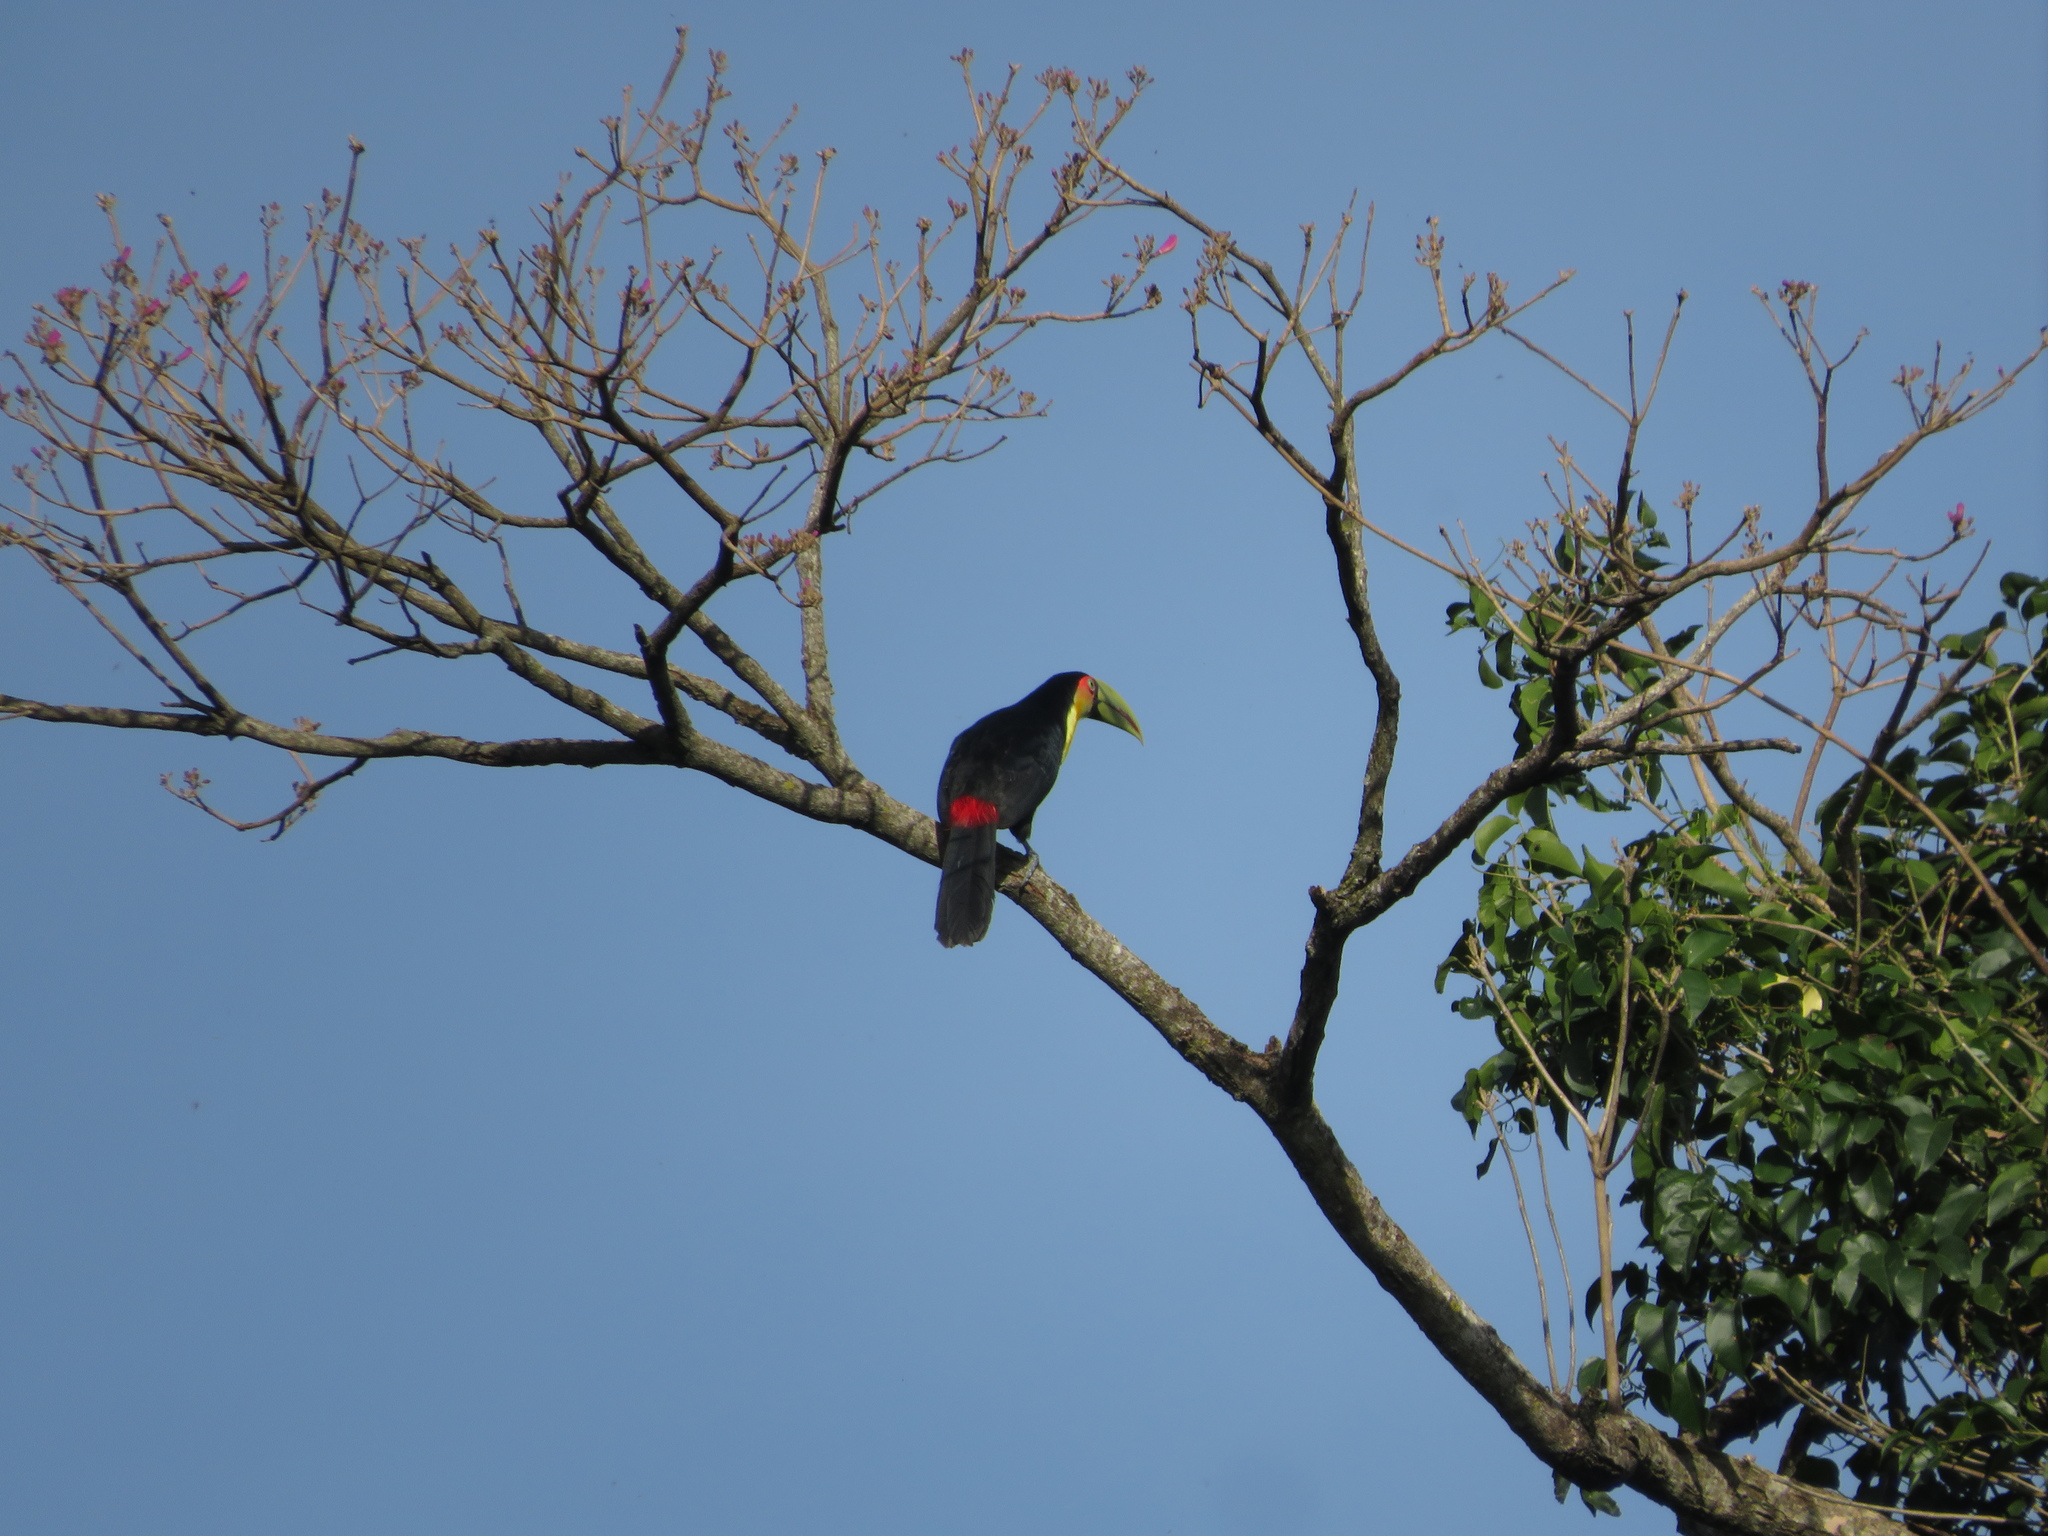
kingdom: Animalia
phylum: Chordata
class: Aves
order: Piciformes
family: Ramphastidae
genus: Ramphastos
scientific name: Ramphastos dicolorus
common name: Green-billed toucan
